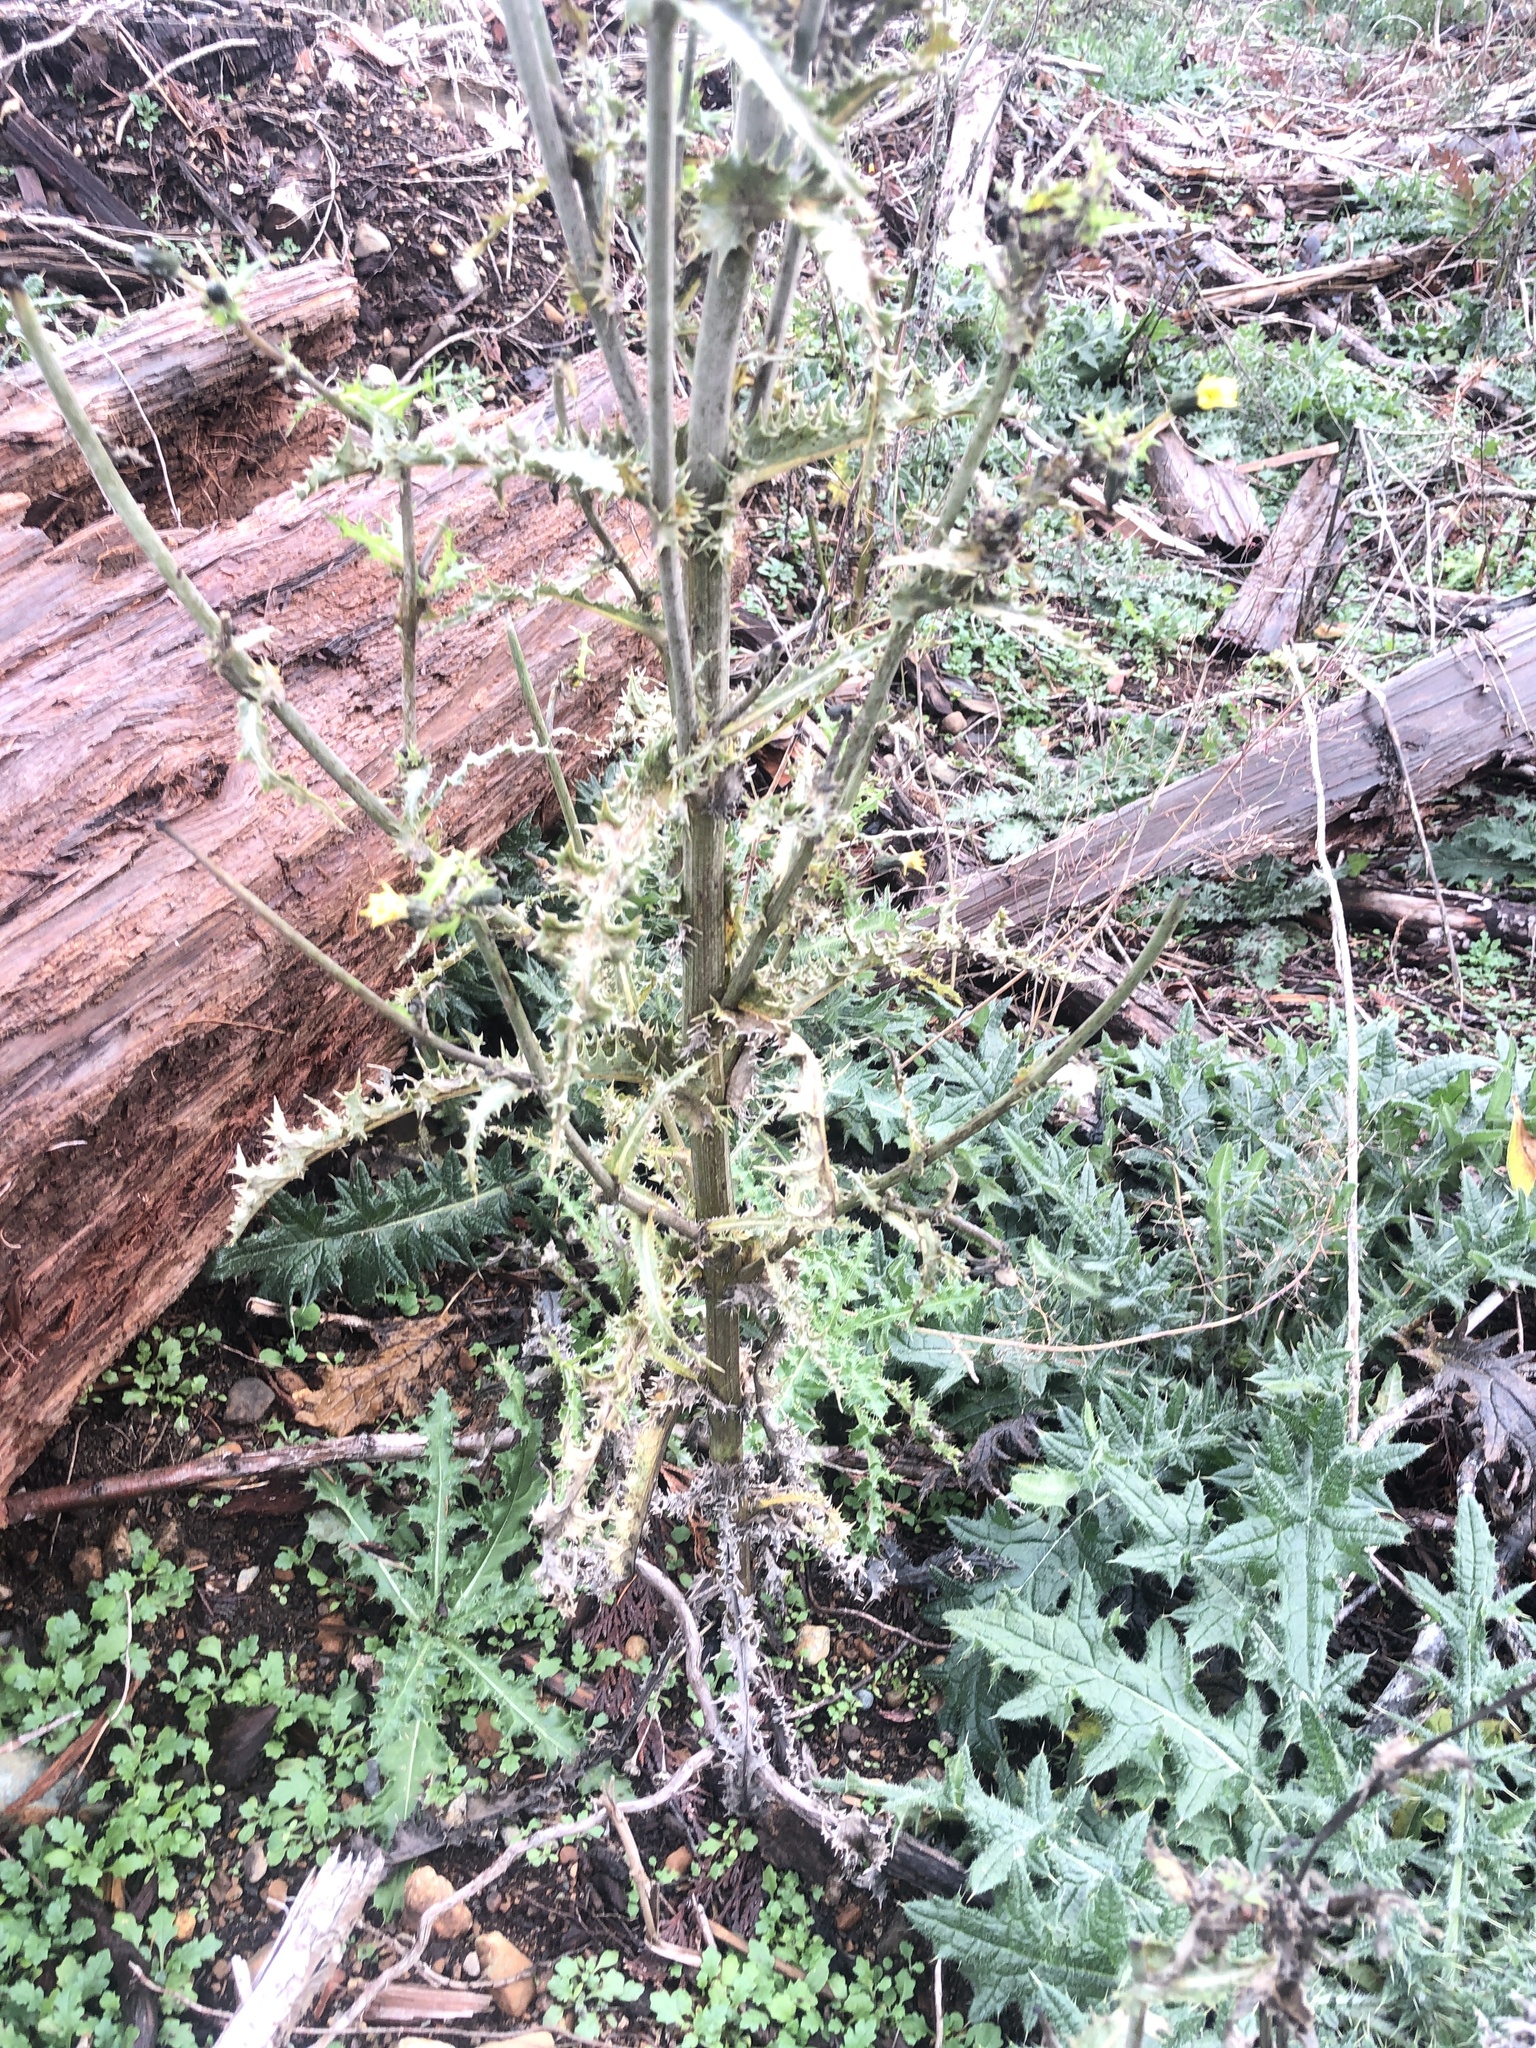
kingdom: Plantae
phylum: Tracheophyta
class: Magnoliopsida
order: Asterales
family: Asteraceae
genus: Sonchus
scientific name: Sonchus asper
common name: Prickly sow-thistle
